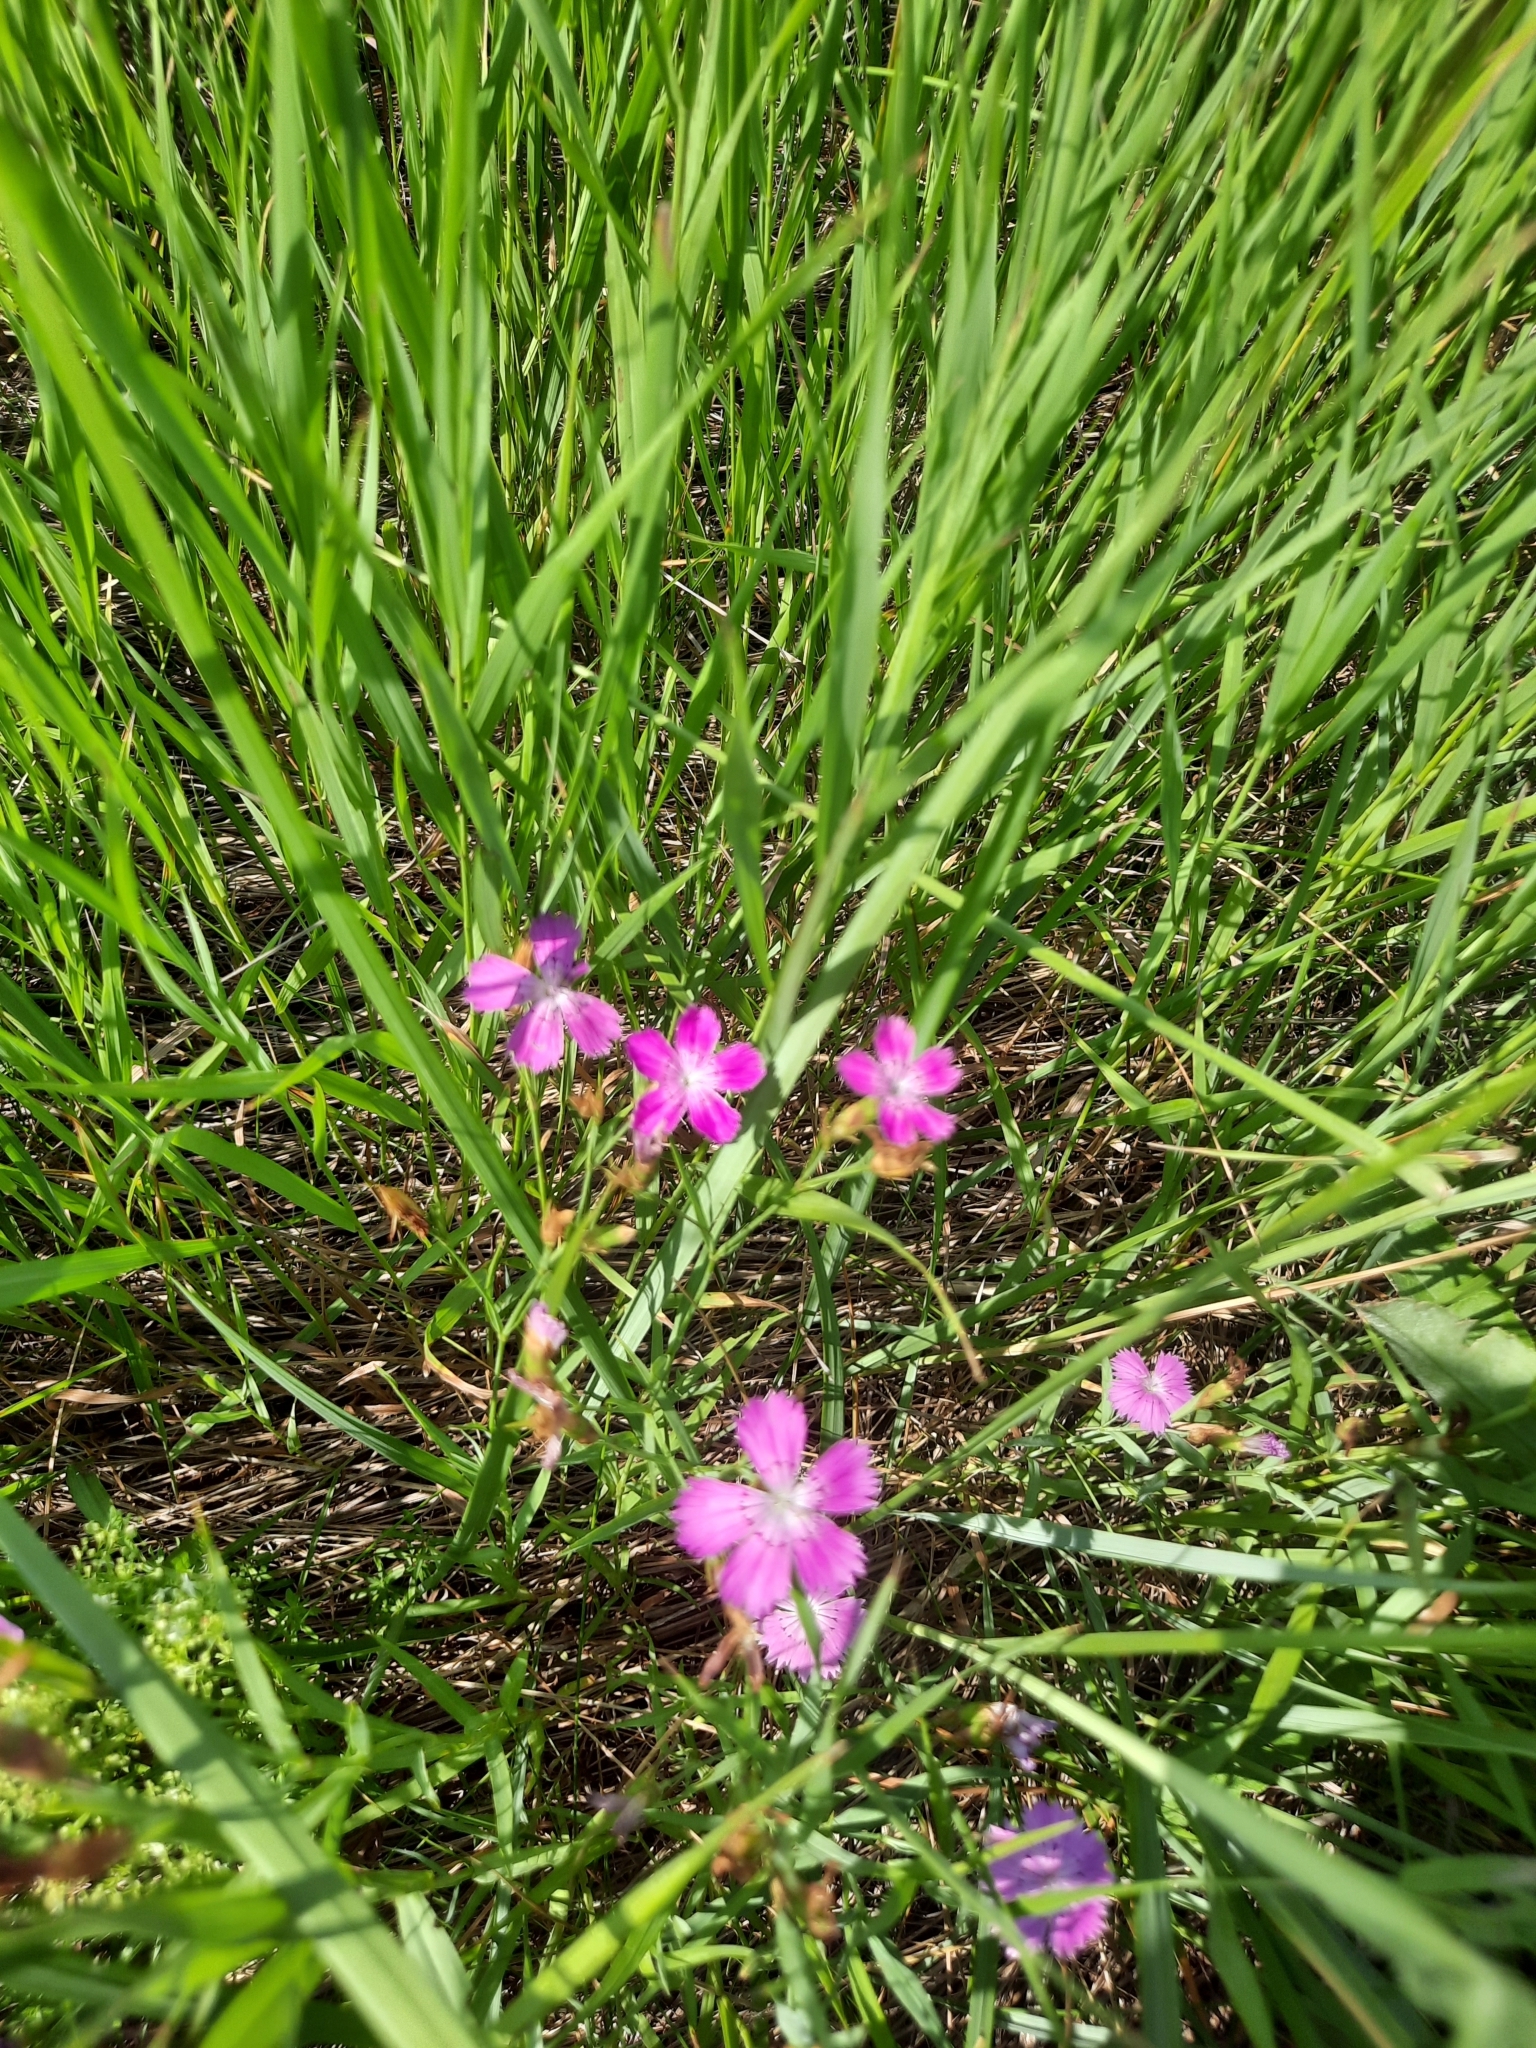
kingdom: Plantae
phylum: Tracheophyta
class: Magnoliopsida
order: Caryophyllales
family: Caryophyllaceae
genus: Dianthus
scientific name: Dianthus deltoides
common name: Maiden pink
